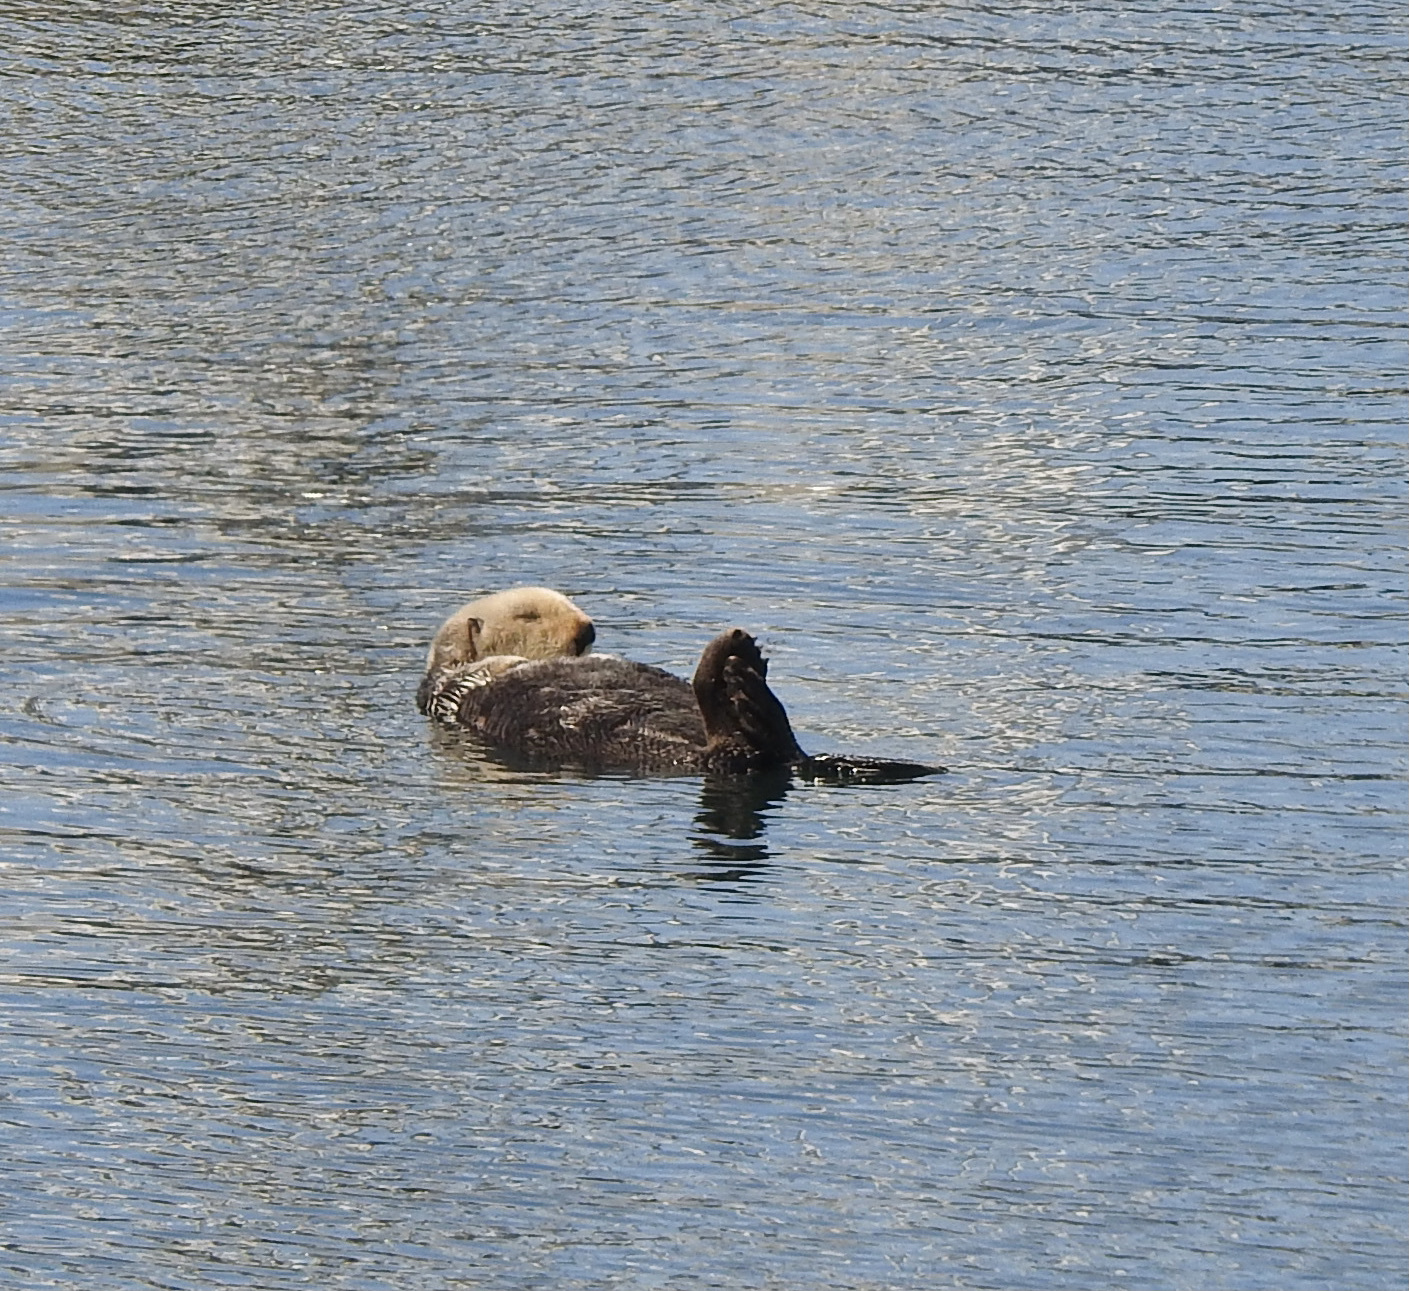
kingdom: Animalia
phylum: Chordata
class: Mammalia
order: Carnivora
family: Mustelidae
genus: Enhydra
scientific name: Enhydra lutris
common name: Sea otter
